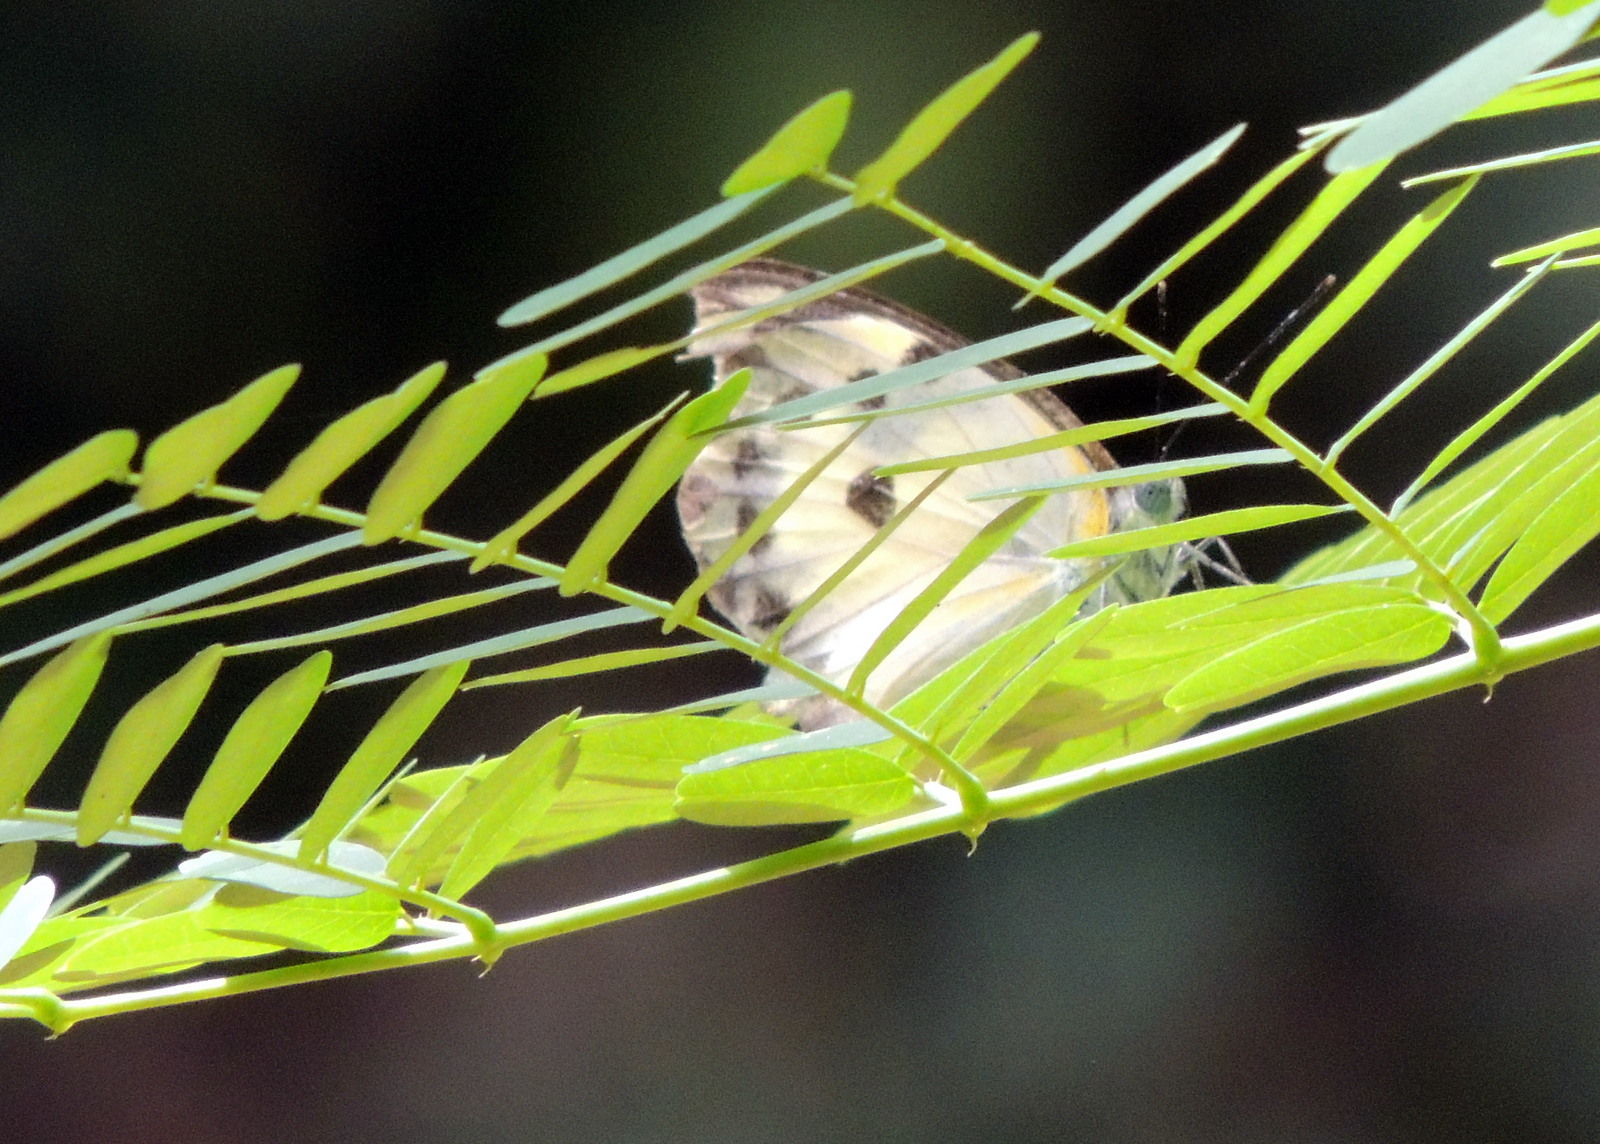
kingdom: Animalia
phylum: Arthropoda
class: Insecta
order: Lepidoptera
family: Pieridae
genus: Belenois
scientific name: Belenois calypso
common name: Calypso caper white
